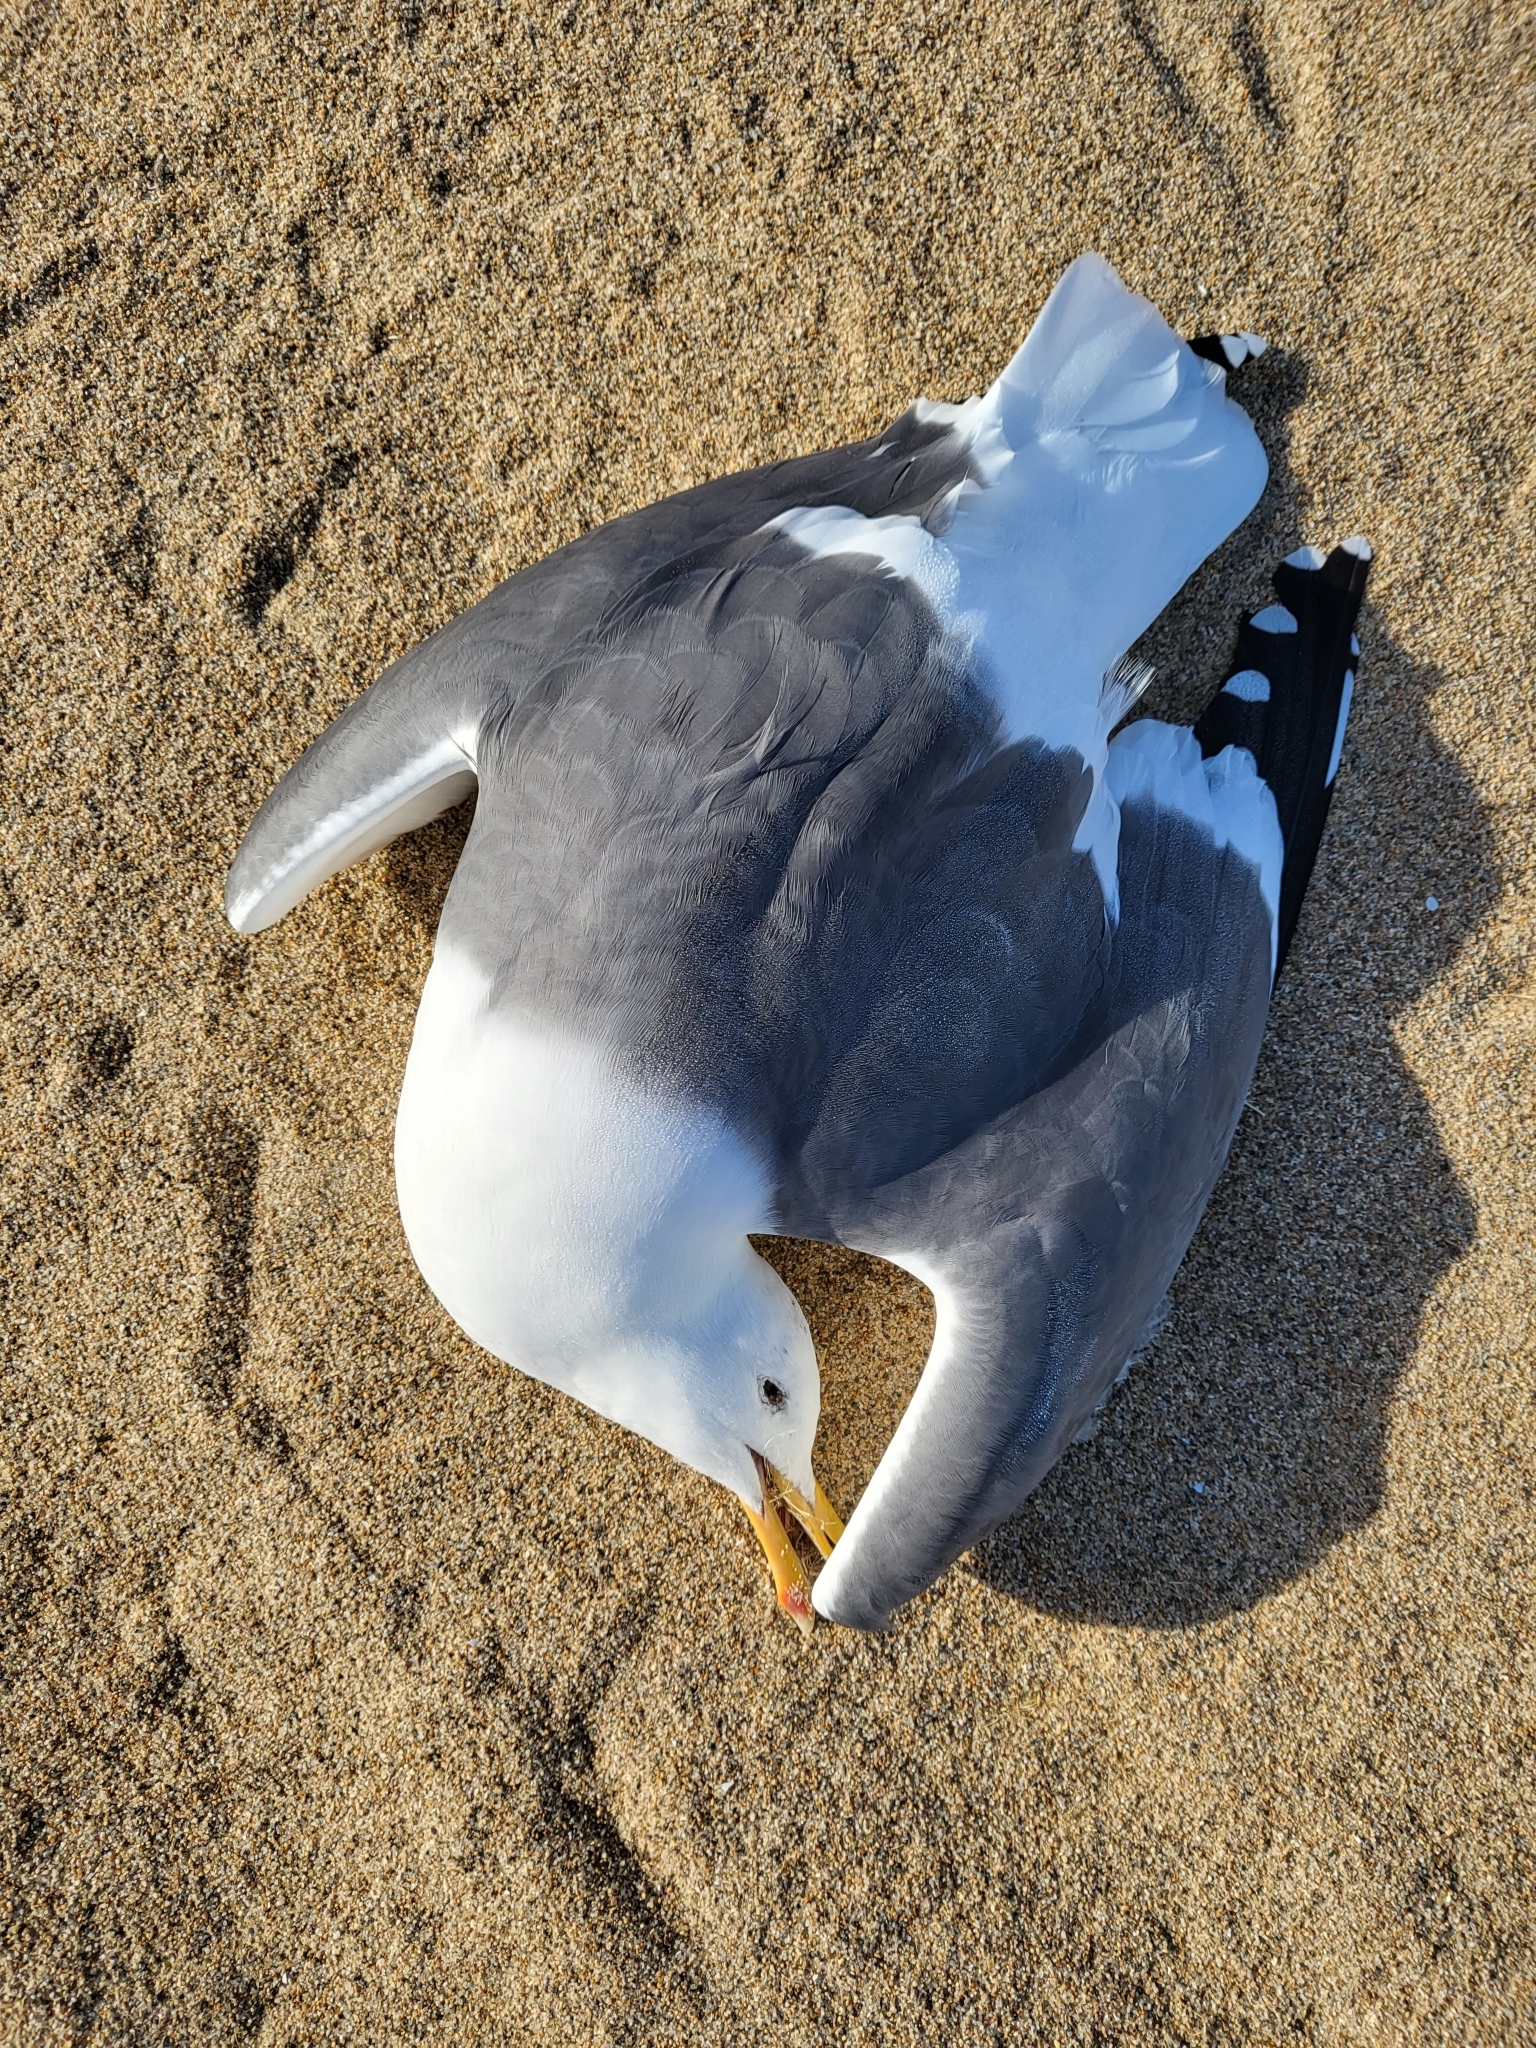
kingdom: Animalia
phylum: Chordata
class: Aves
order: Charadriiformes
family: Laridae
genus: Larus
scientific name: Larus occidentalis
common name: Western gull
